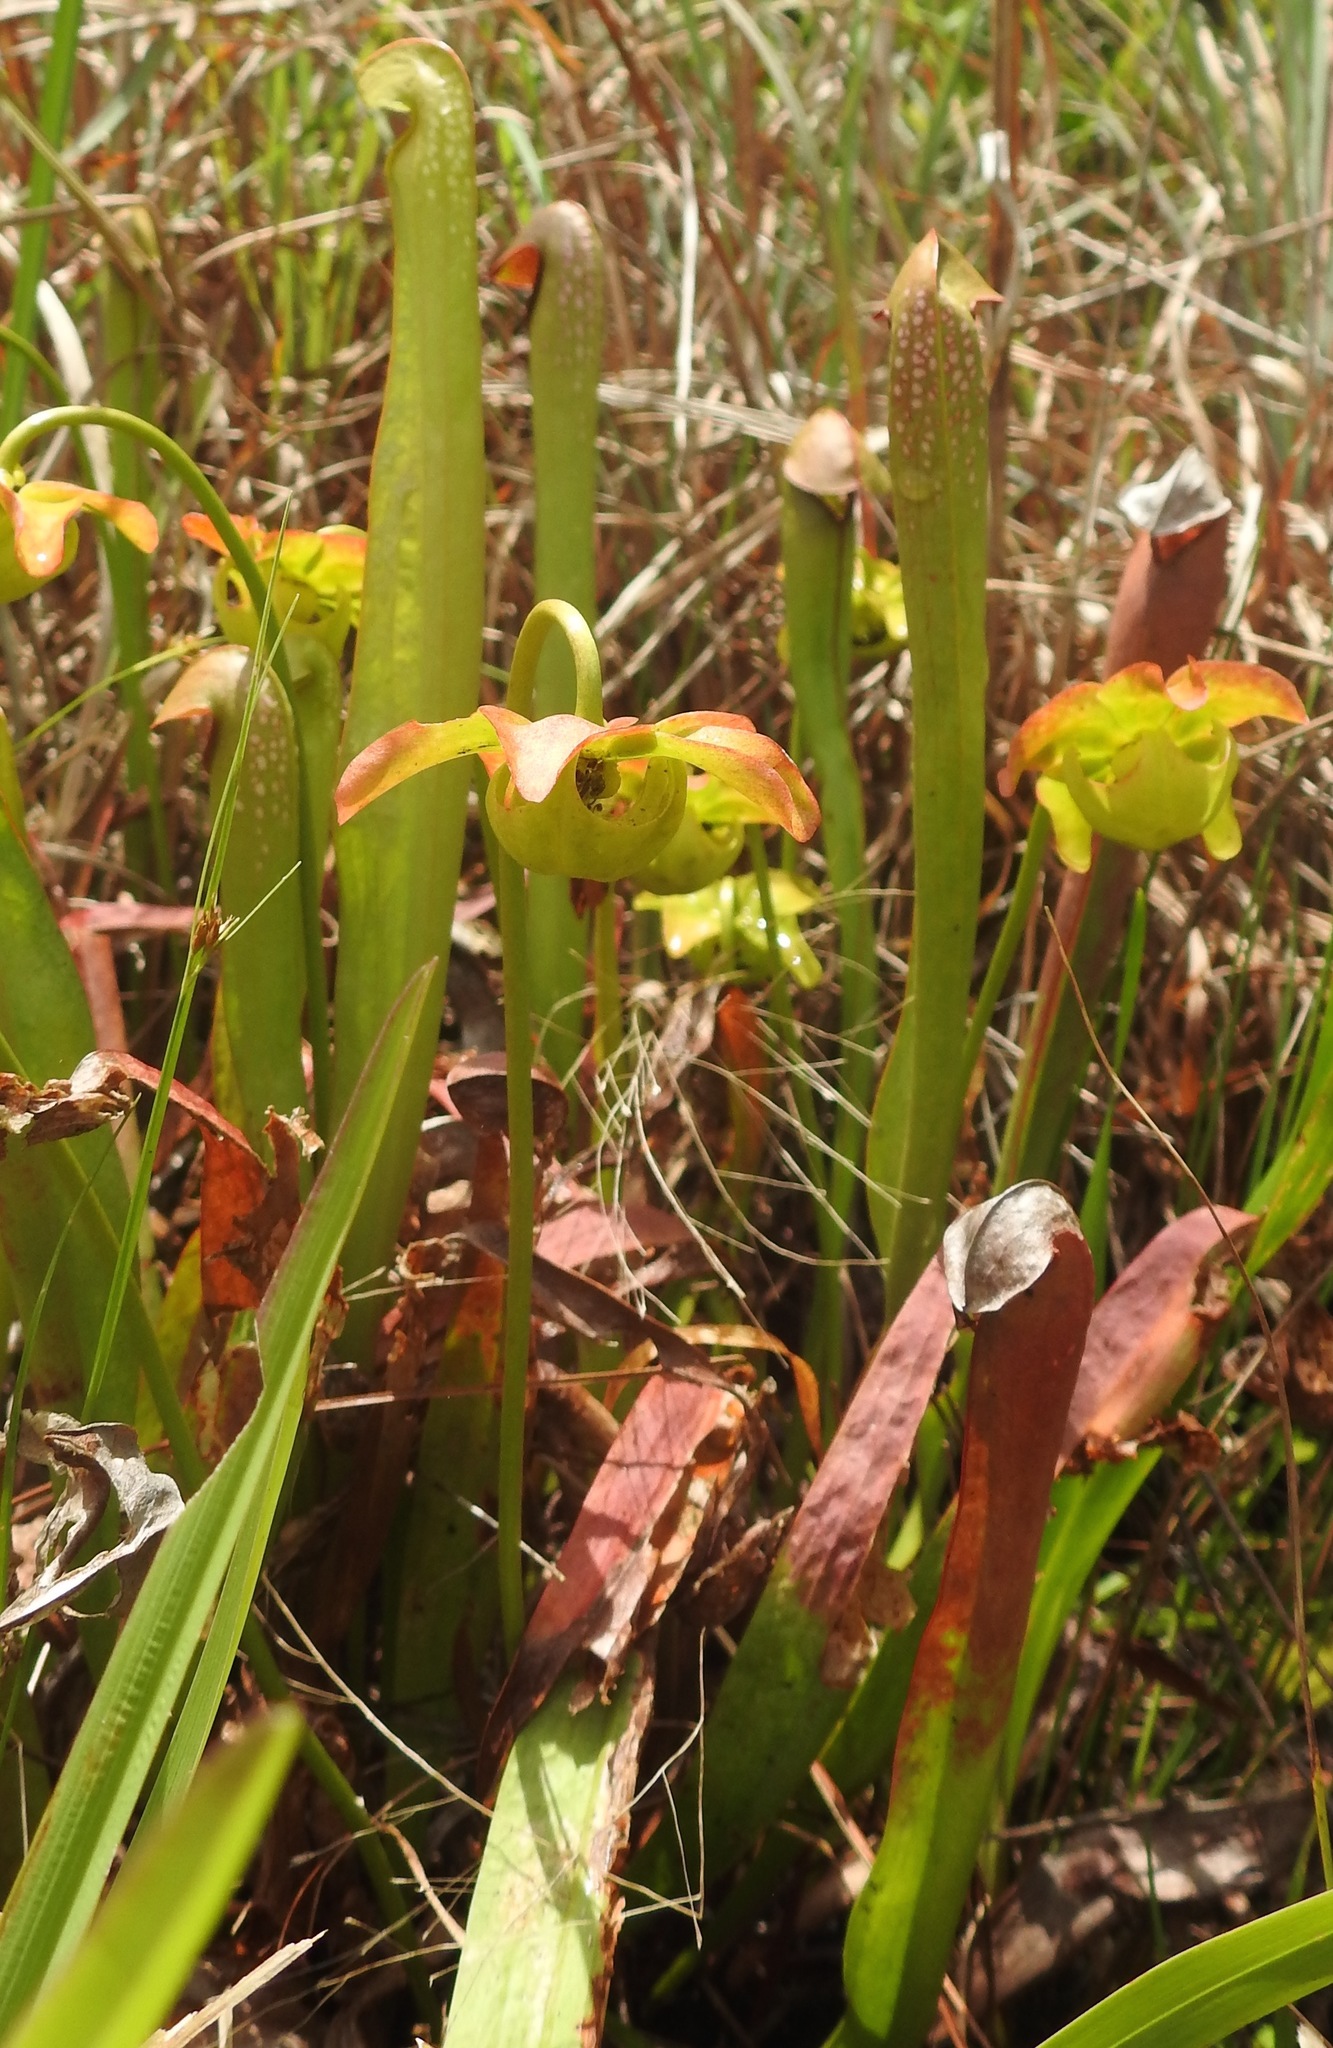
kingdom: Plantae
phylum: Tracheophyta
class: Magnoliopsida
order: Ericales
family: Sarraceniaceae
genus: Sarracenia
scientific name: Sarracenia minor
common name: Rainhat-trumpet
